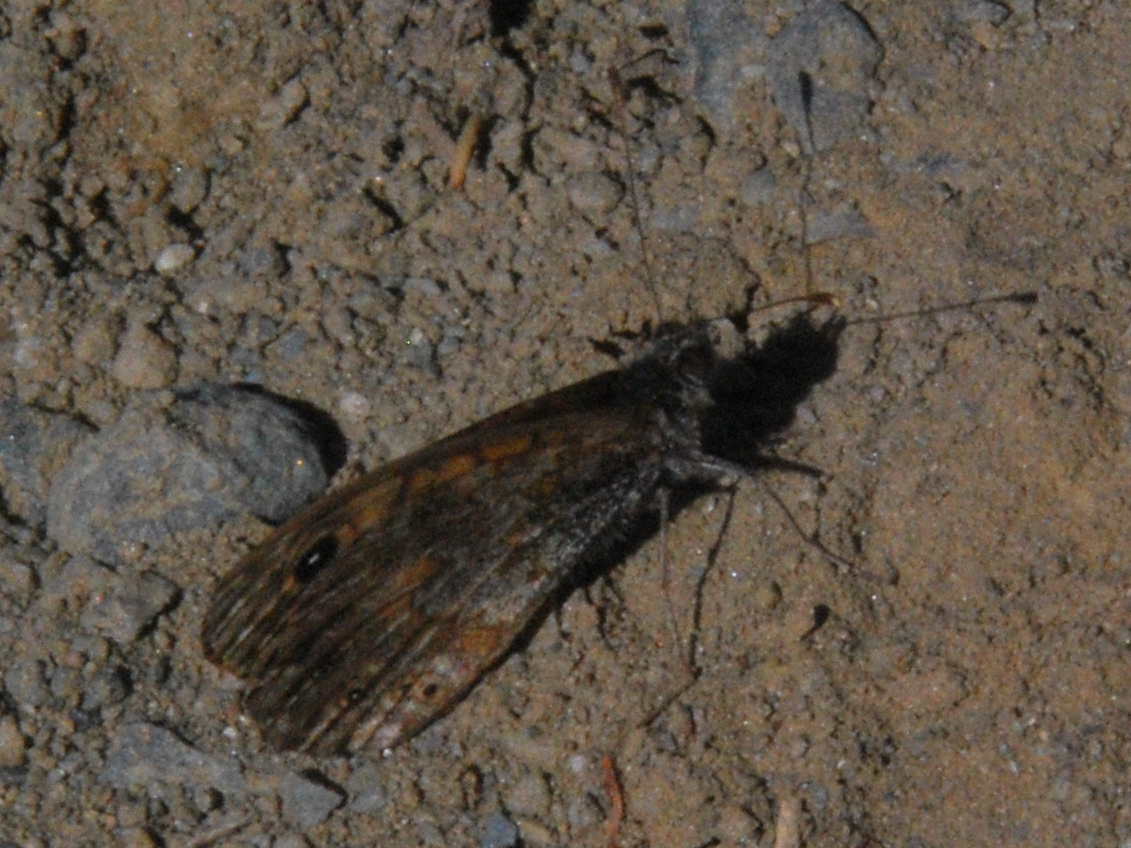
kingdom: Animalia
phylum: Arthropoda
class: Insecta
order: Lepidoptera
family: Nymphalidae
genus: Pararge
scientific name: Pararge Lasiommata megera
